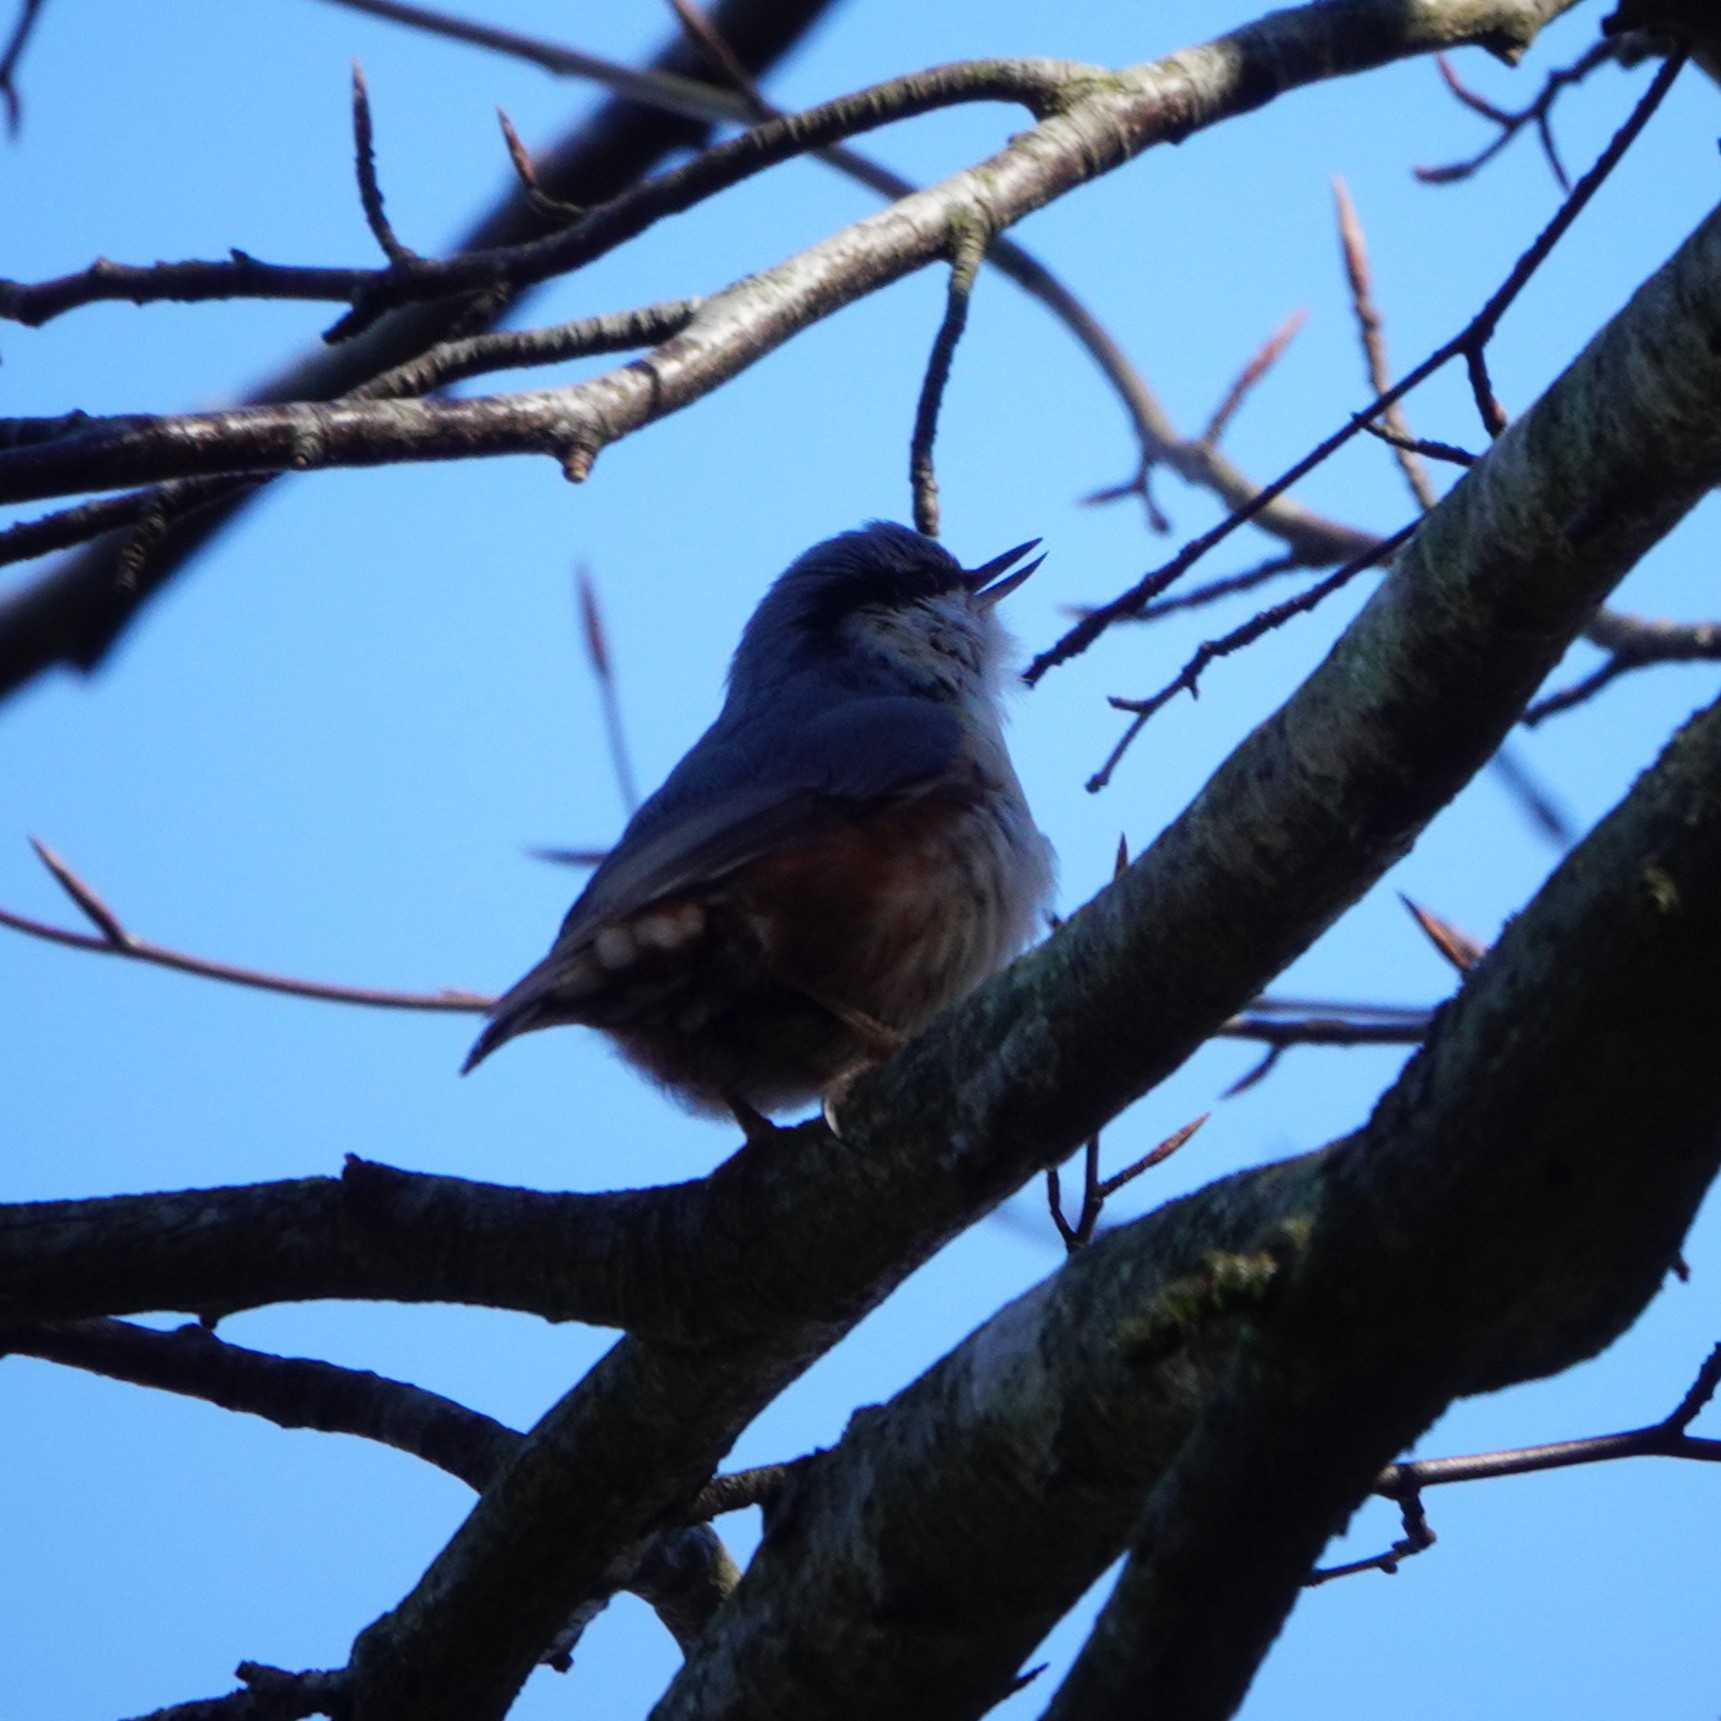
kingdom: Animalia
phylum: Chordata
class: Aves
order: Passeriformes
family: Sittidae
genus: Sitta
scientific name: Sitta europaea
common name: Eurasian nuthatch
